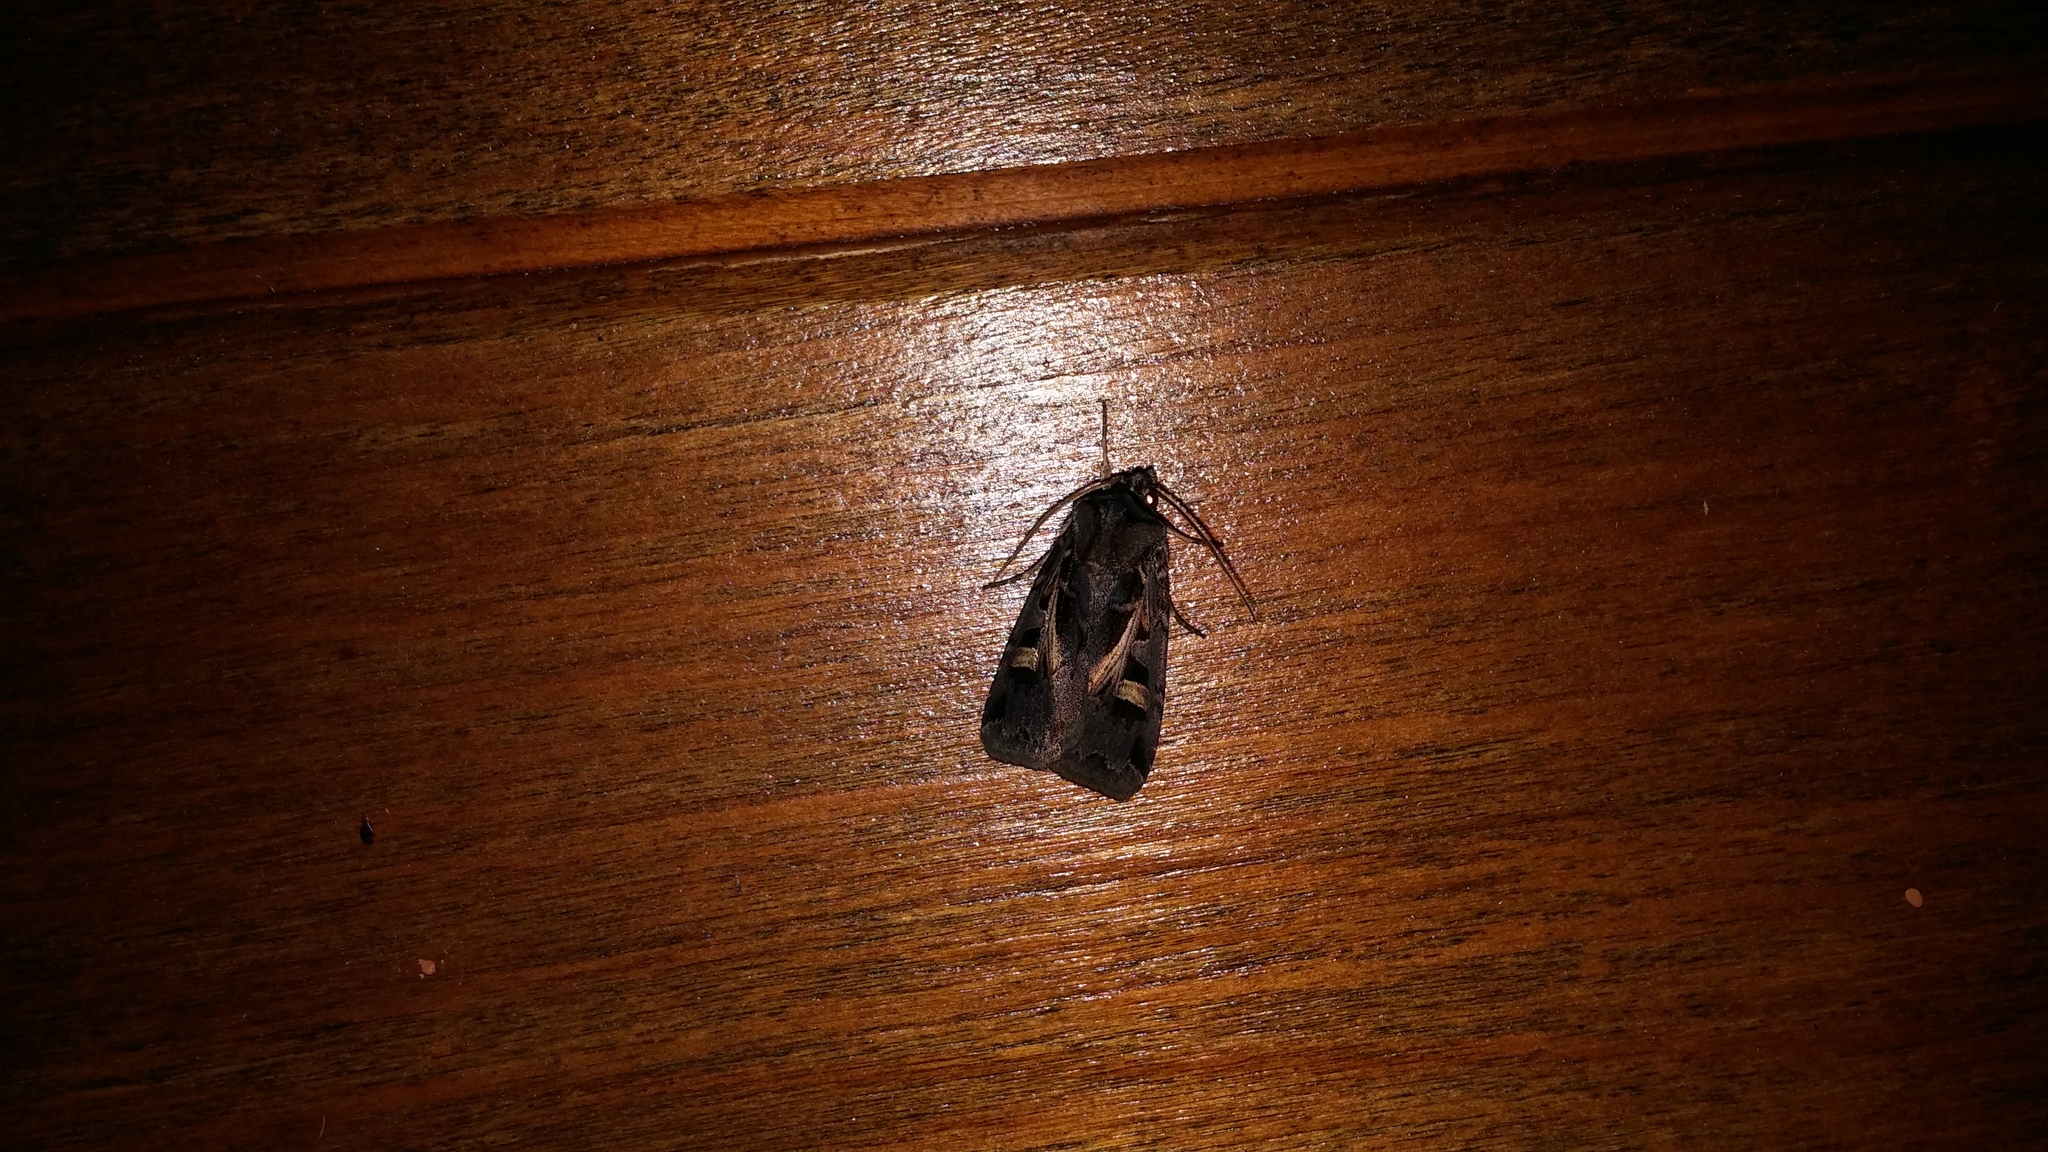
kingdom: Animalia
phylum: Arthropoda
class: Insecta
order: Lepidoptera
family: Noctuidae
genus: Feltia
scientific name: Feltia herilis
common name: Master's dart
